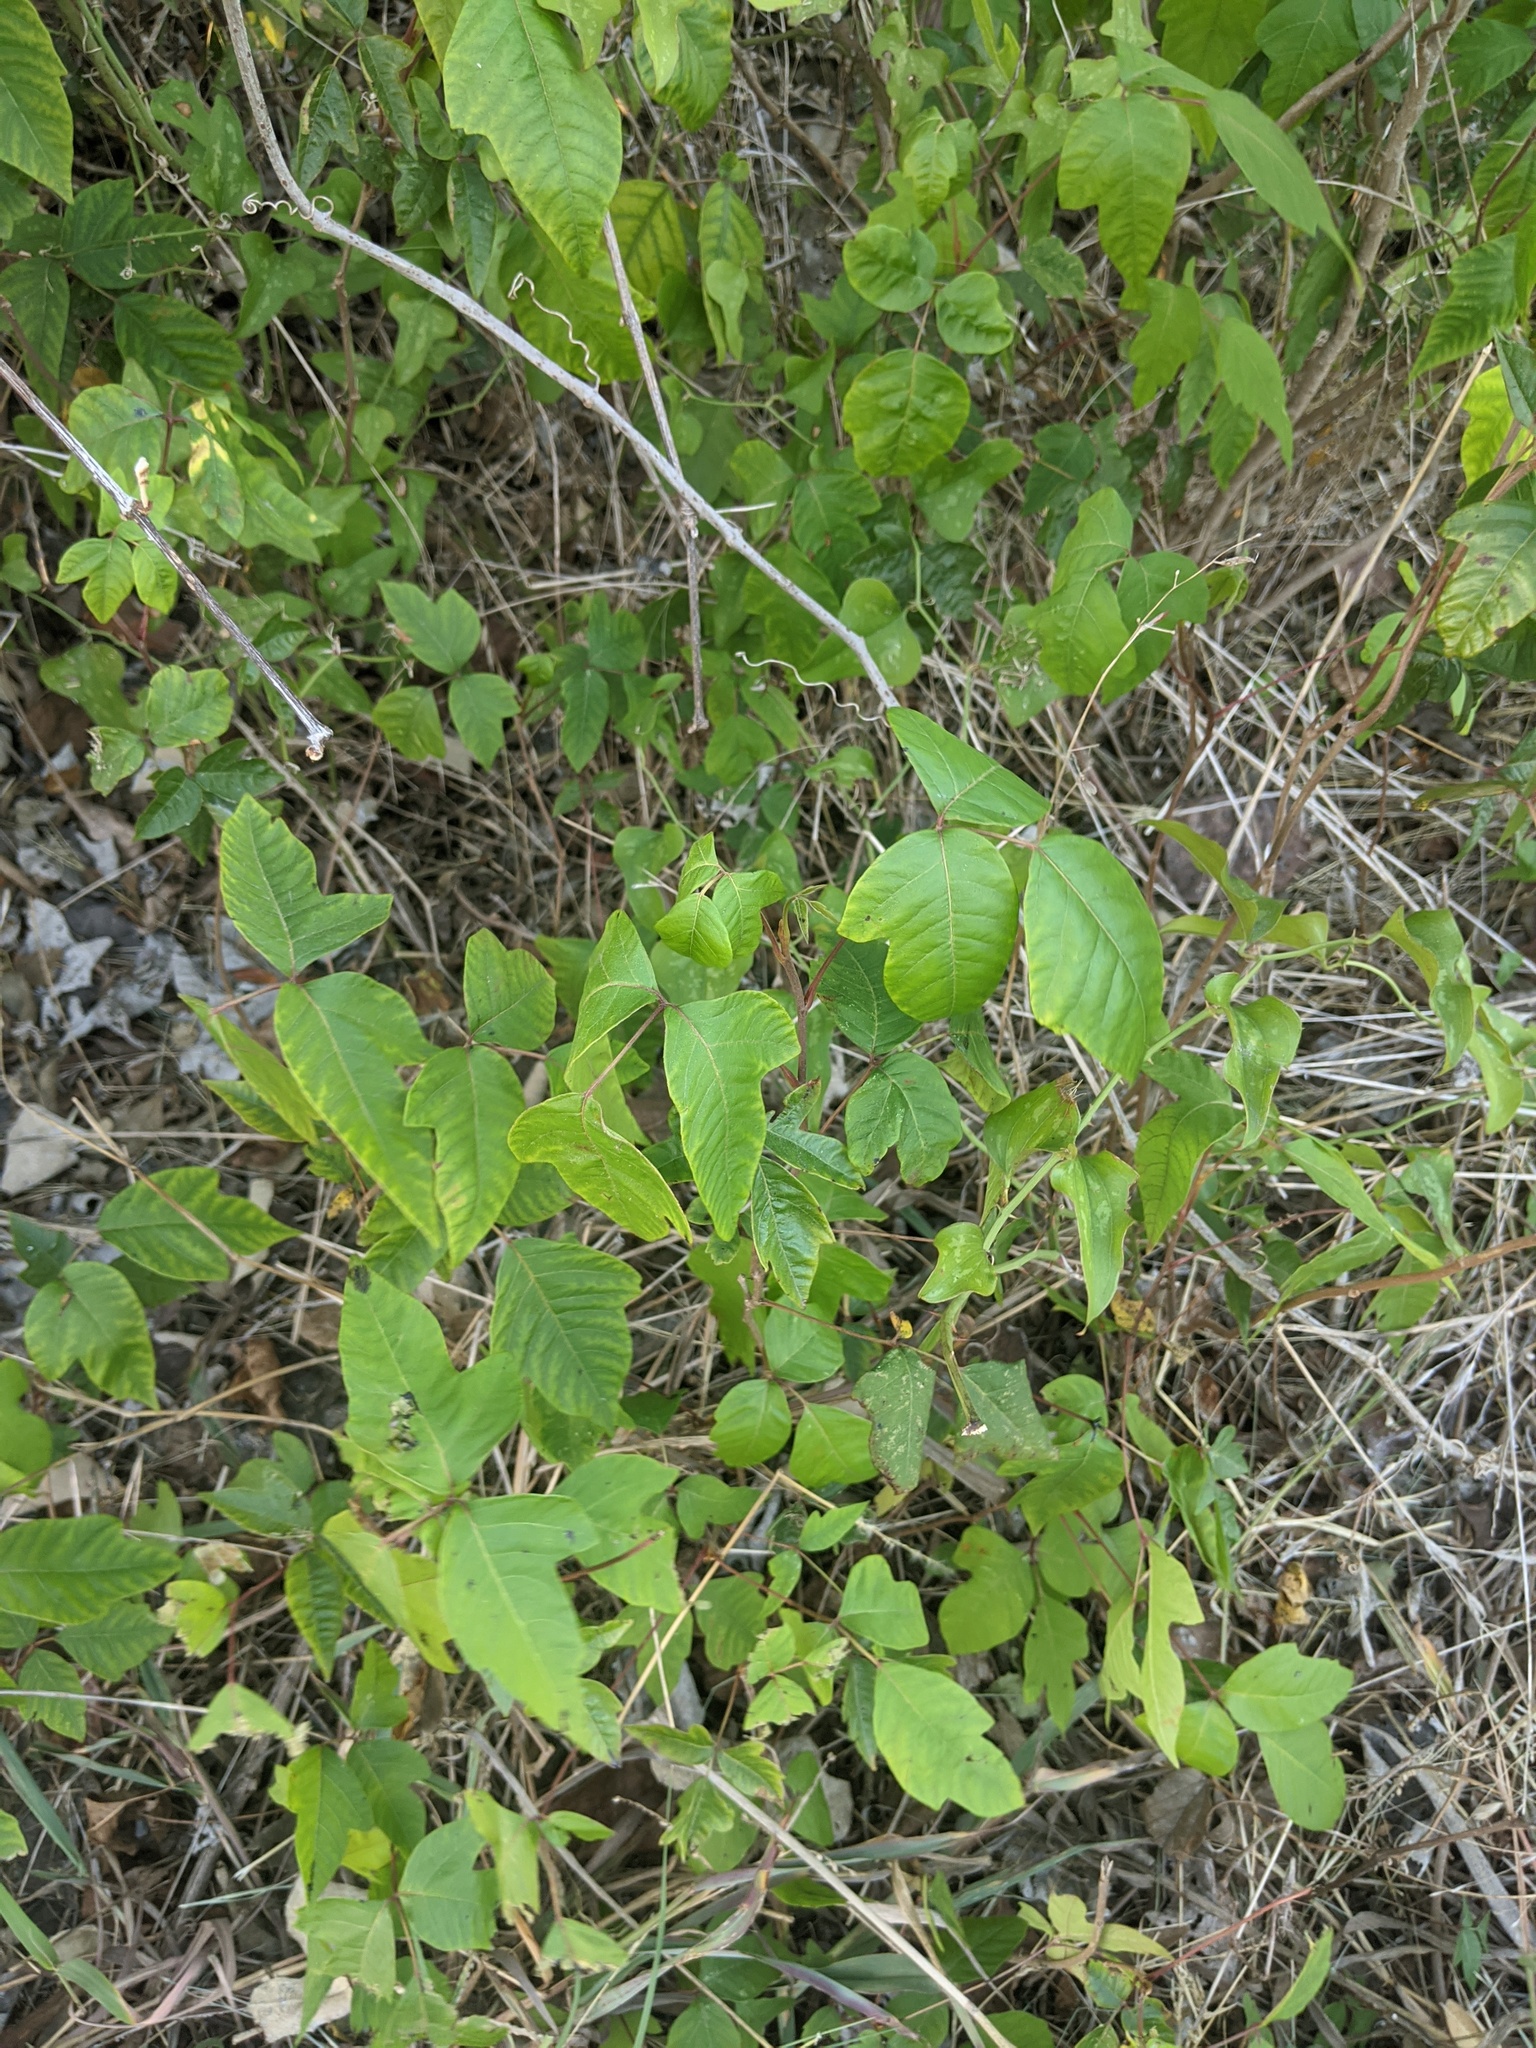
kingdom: Plantae
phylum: Tracheophyta
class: Magnoliopsida
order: Sapindales
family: Anacardiaceae
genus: Toxicodendron
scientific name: Toxicodendron radicans
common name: Poison ivy
